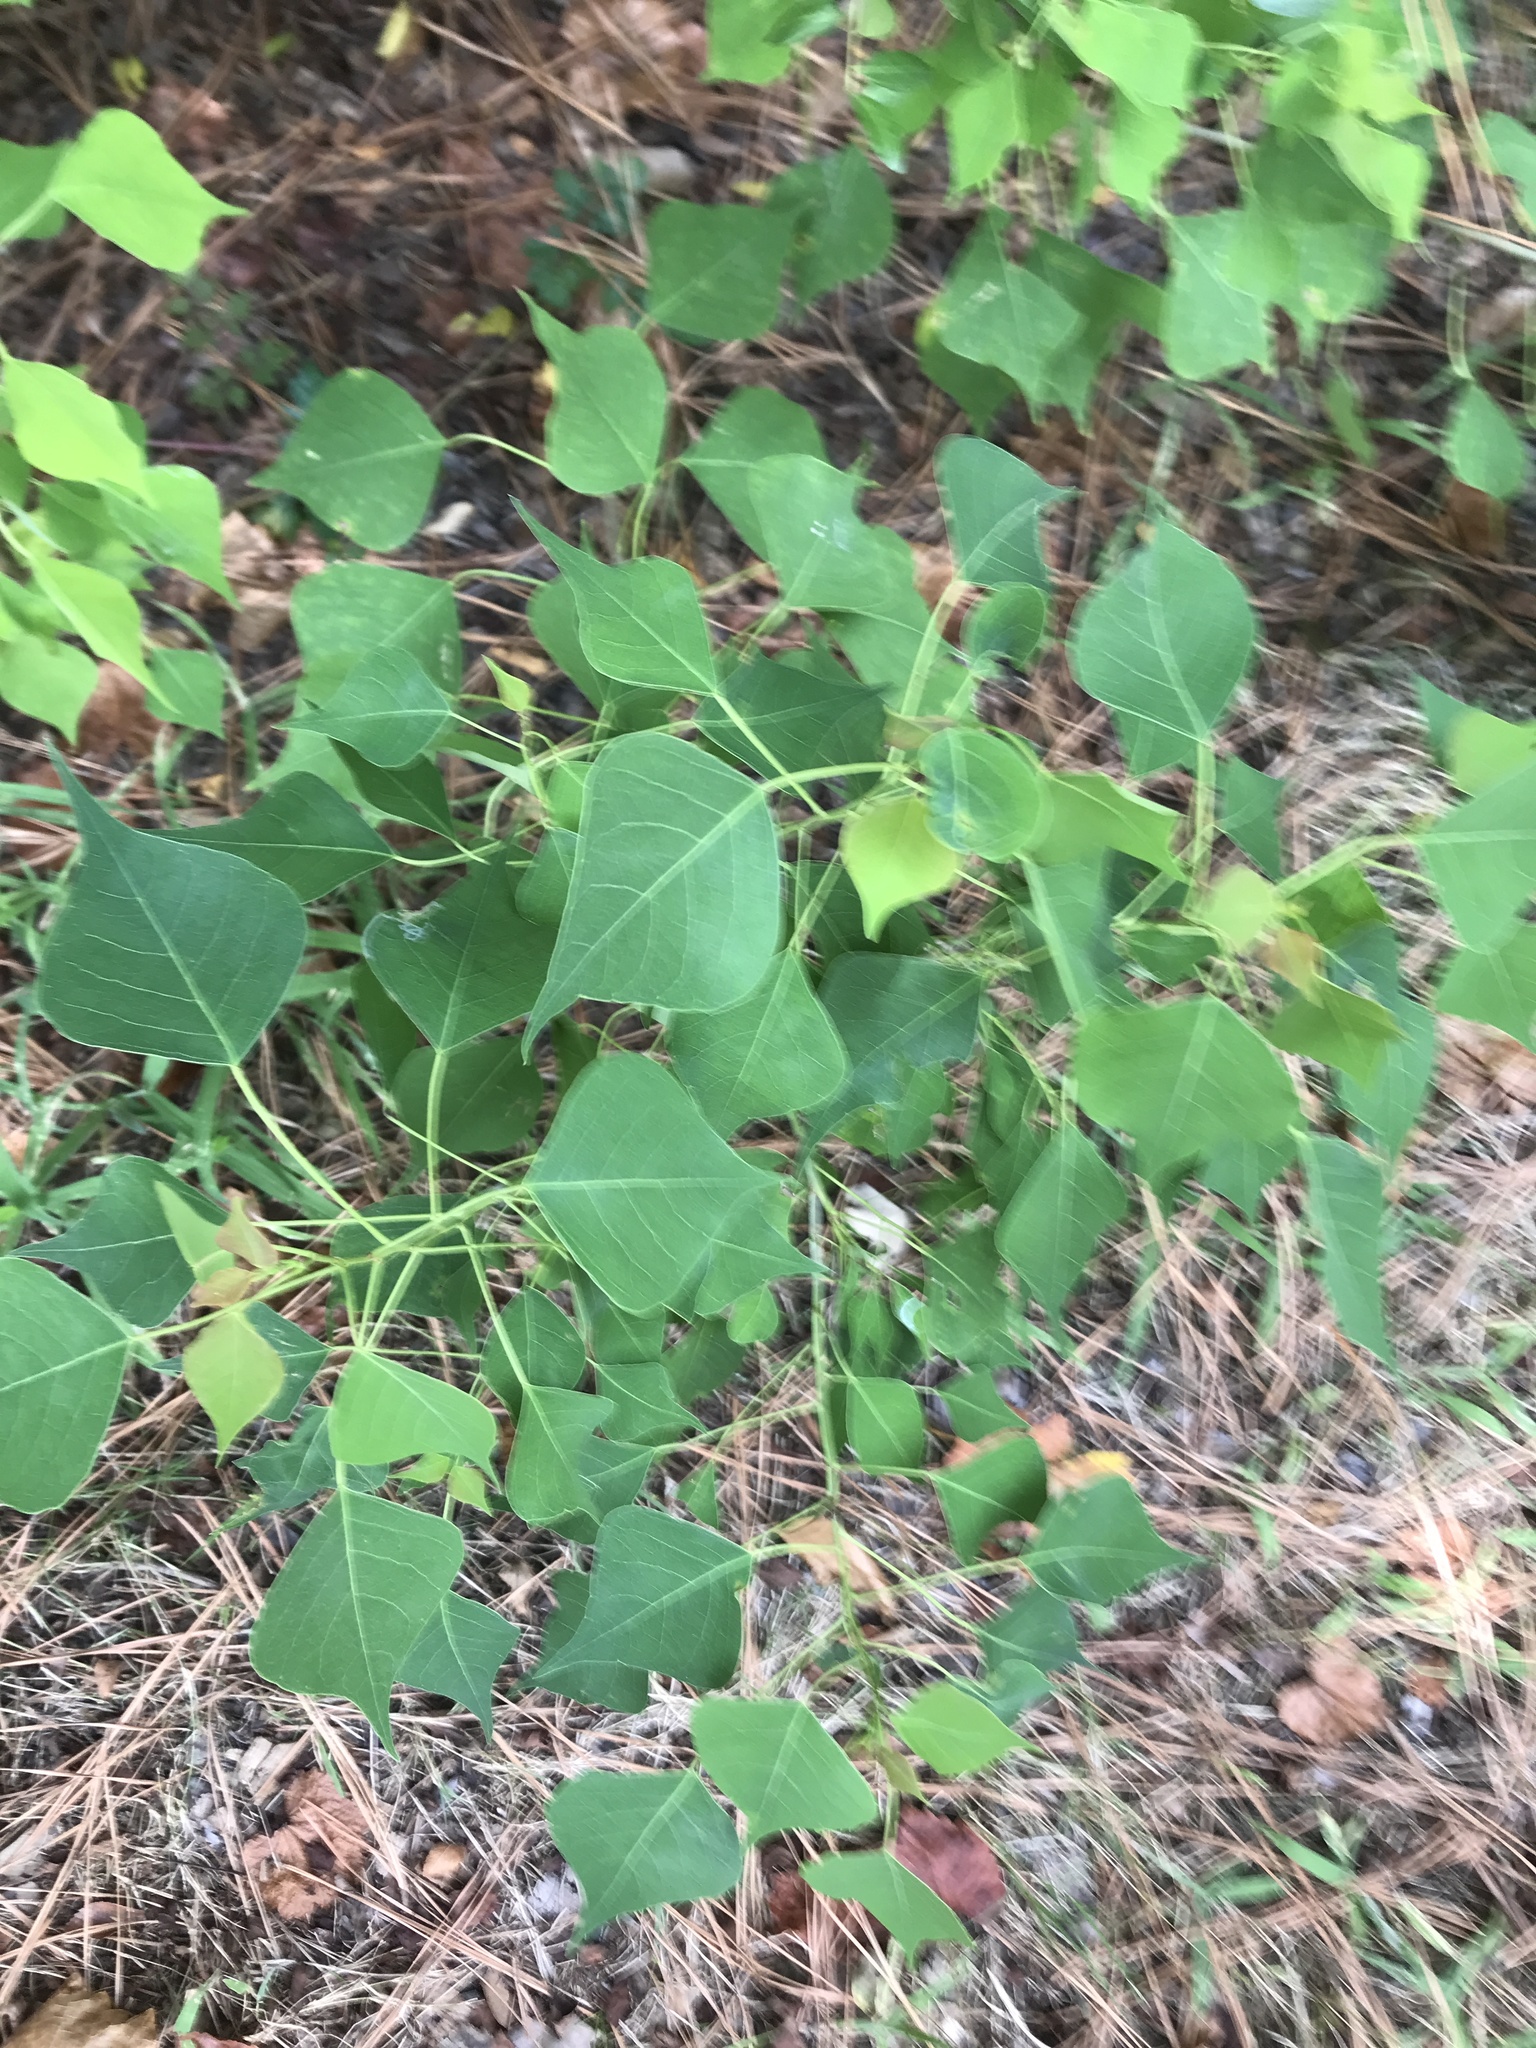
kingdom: Plantae
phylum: Tracheophyta
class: Magnoliopsida
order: Malpighiales
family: Euphorbiaceae
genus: Triadica
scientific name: Triadica sebifera
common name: Chinese tallow
